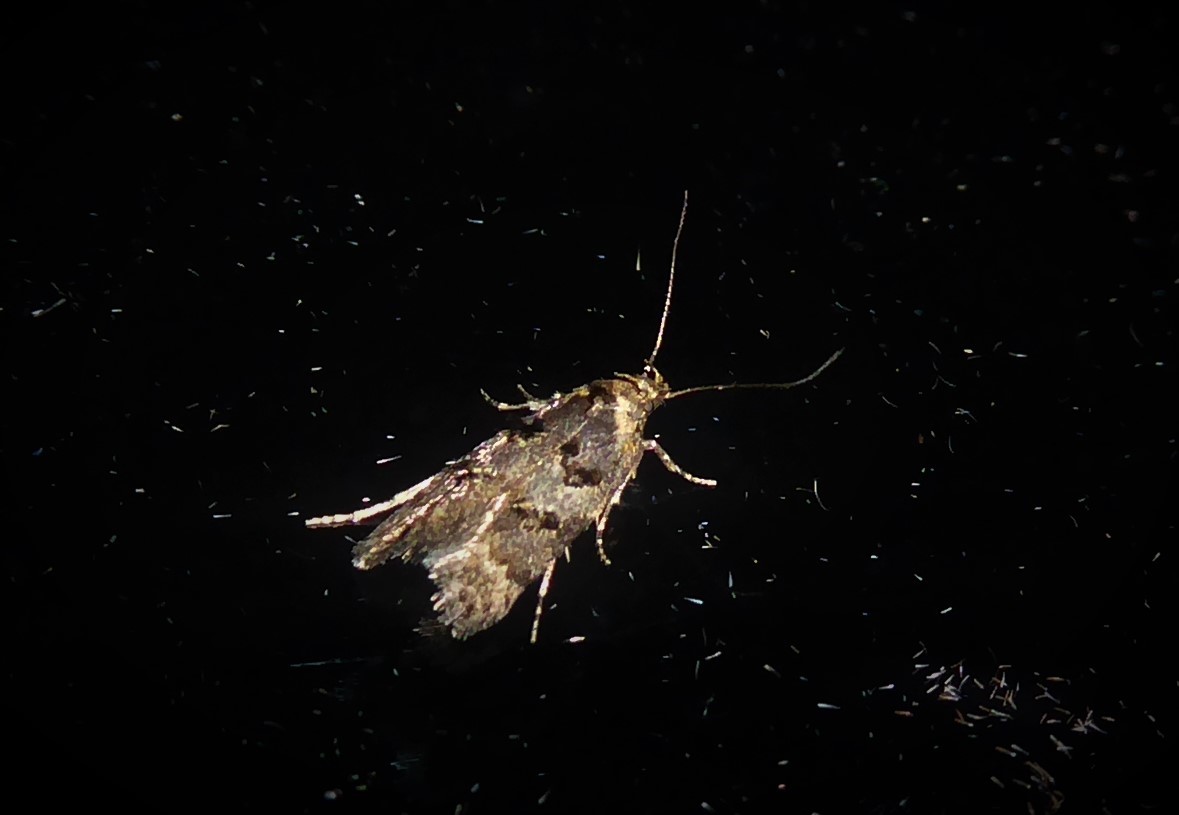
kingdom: Animalia
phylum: Arthropoda
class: Insecta
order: Lepidoptera
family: Oecophoridae
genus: Trachypepla
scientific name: Trachypepla anastrella
